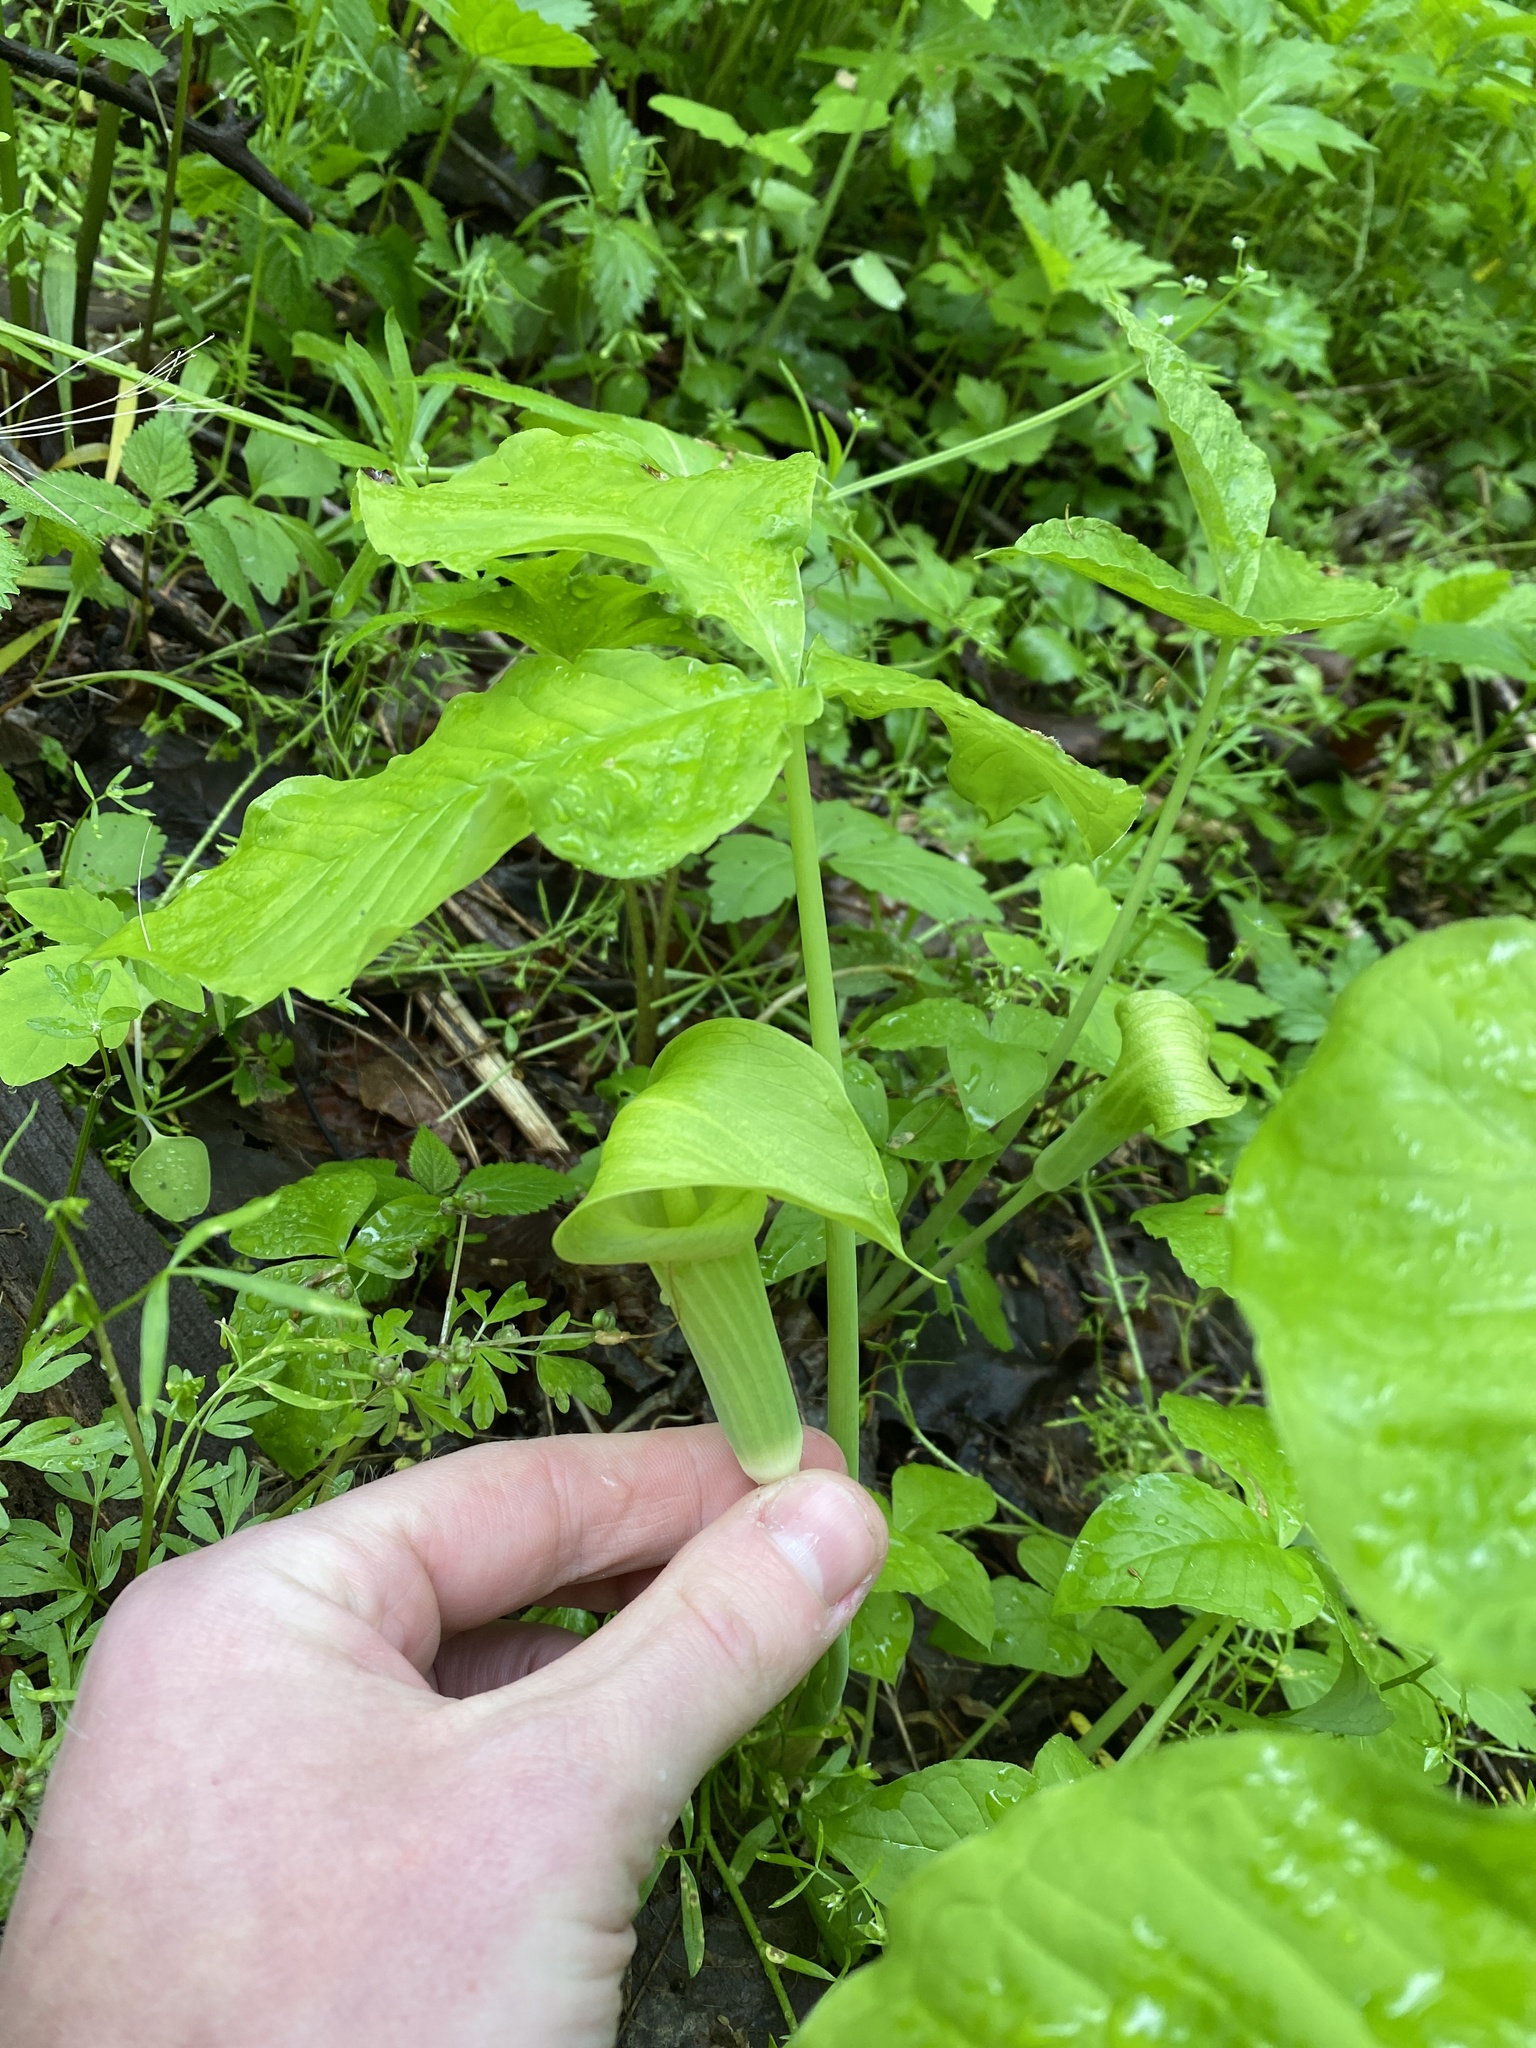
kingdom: Plantae
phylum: Tracheophyta
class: Liliopsida
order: Alismatales
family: Araceae
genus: Arisaema
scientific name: Arisaema triphyllum
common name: Jack-in-the-pulpit
